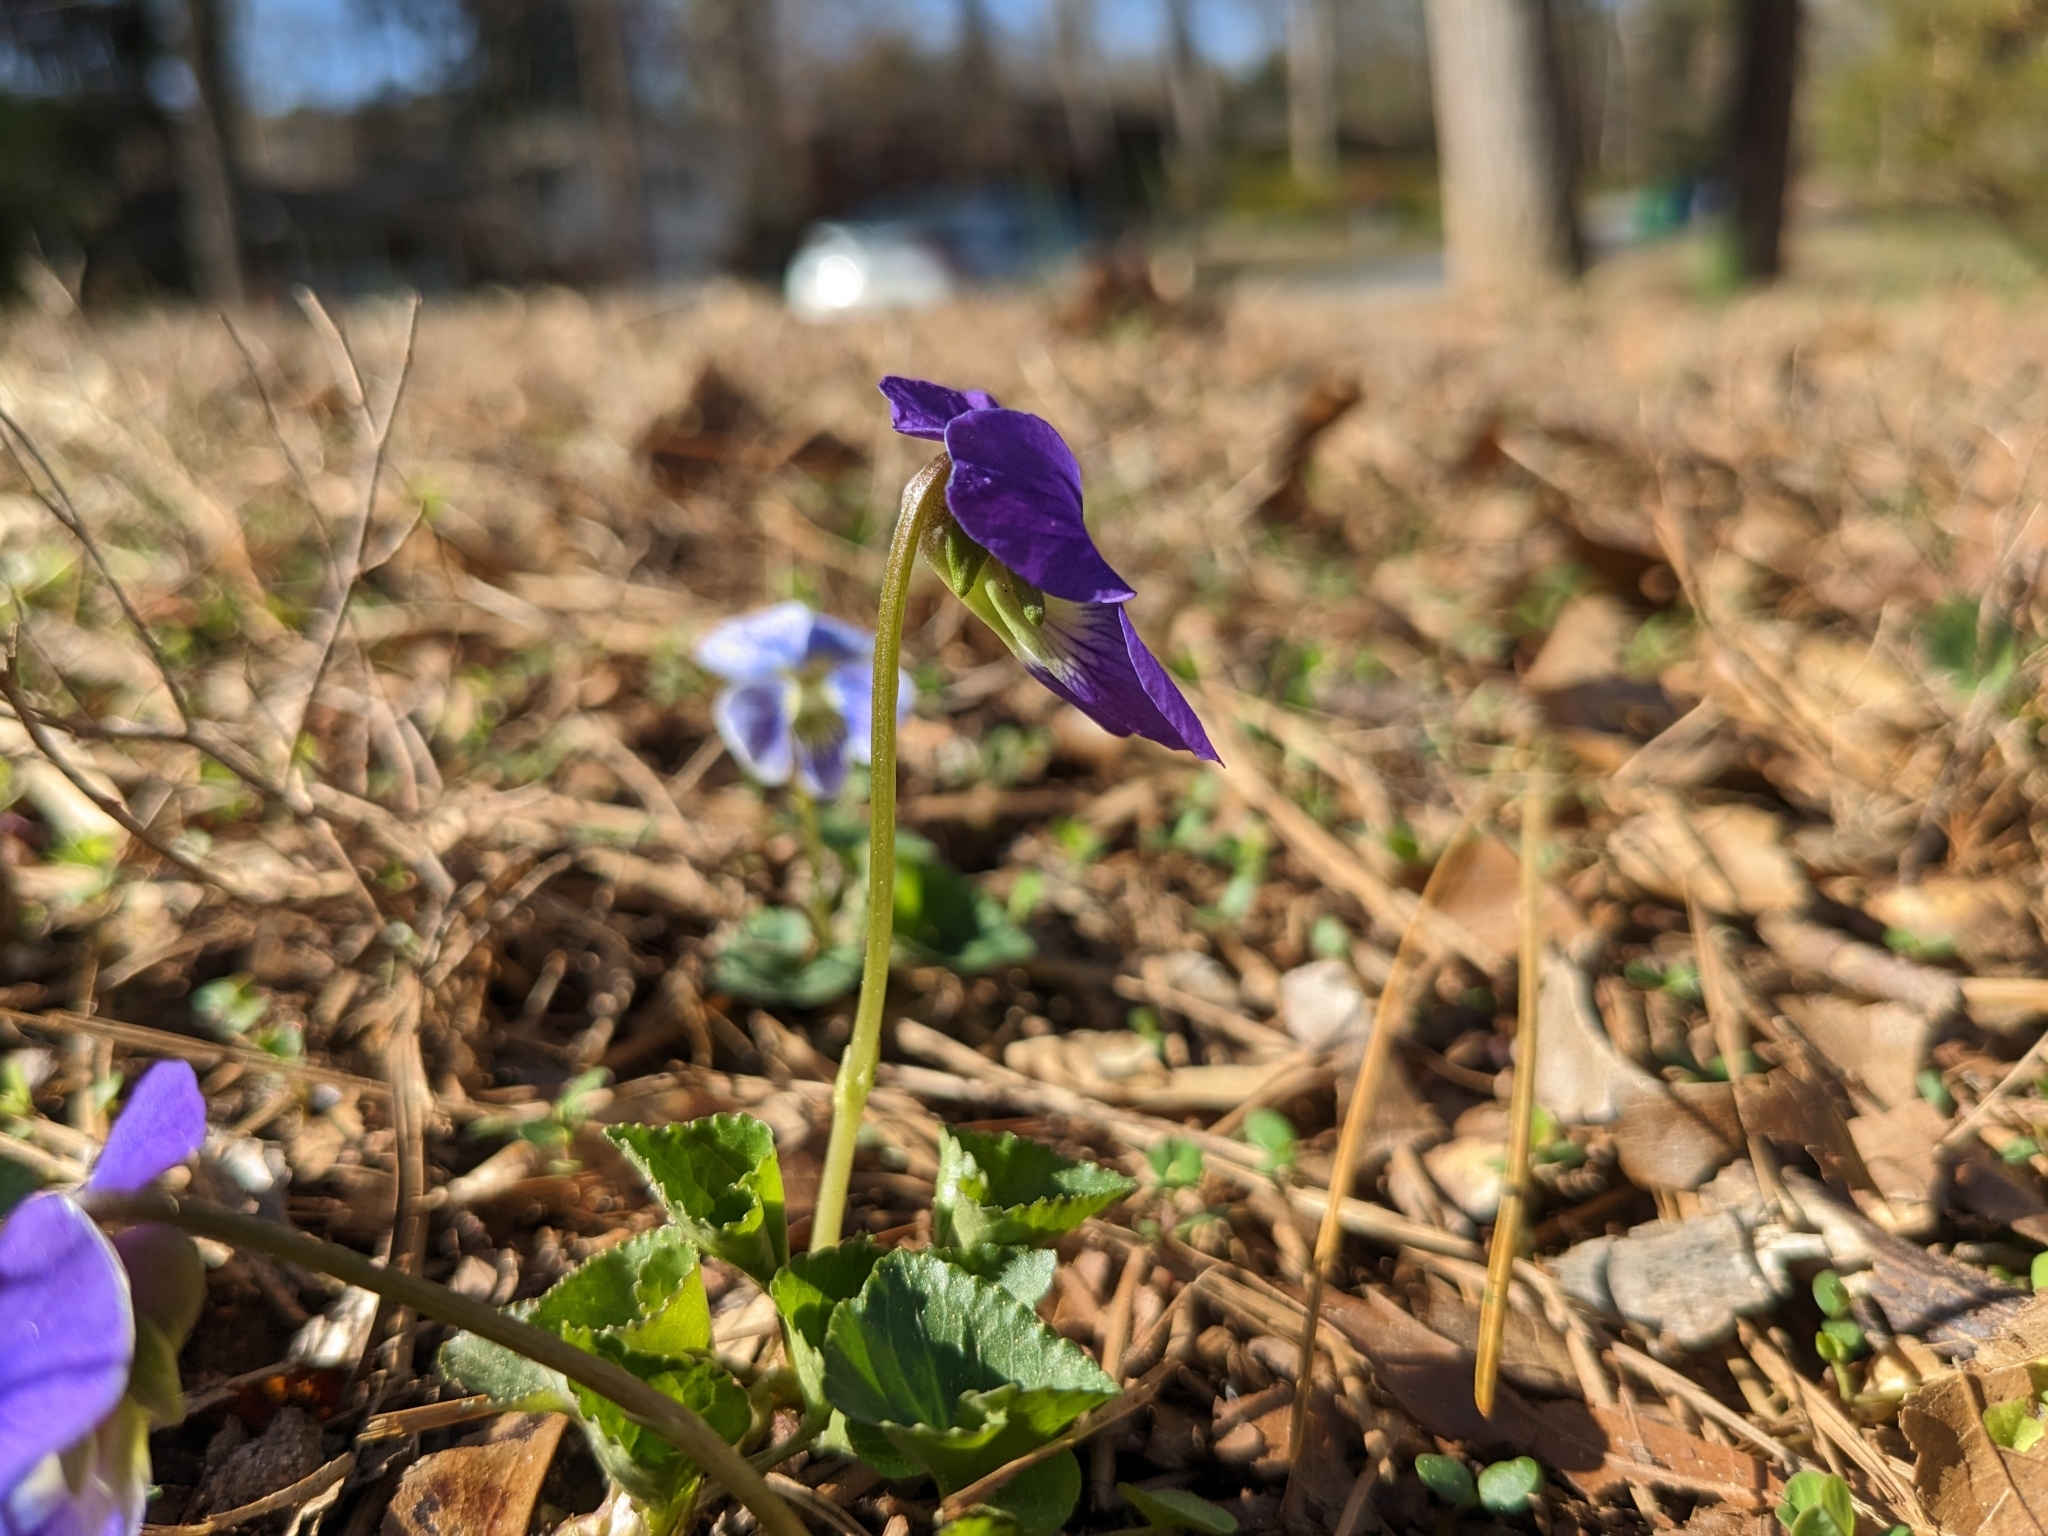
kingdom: Plantae
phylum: Tracheophyta
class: Magnoliopsida
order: Malpighiales
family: Violaceae
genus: Viola
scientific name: Viola sororia
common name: Dooryard violet
